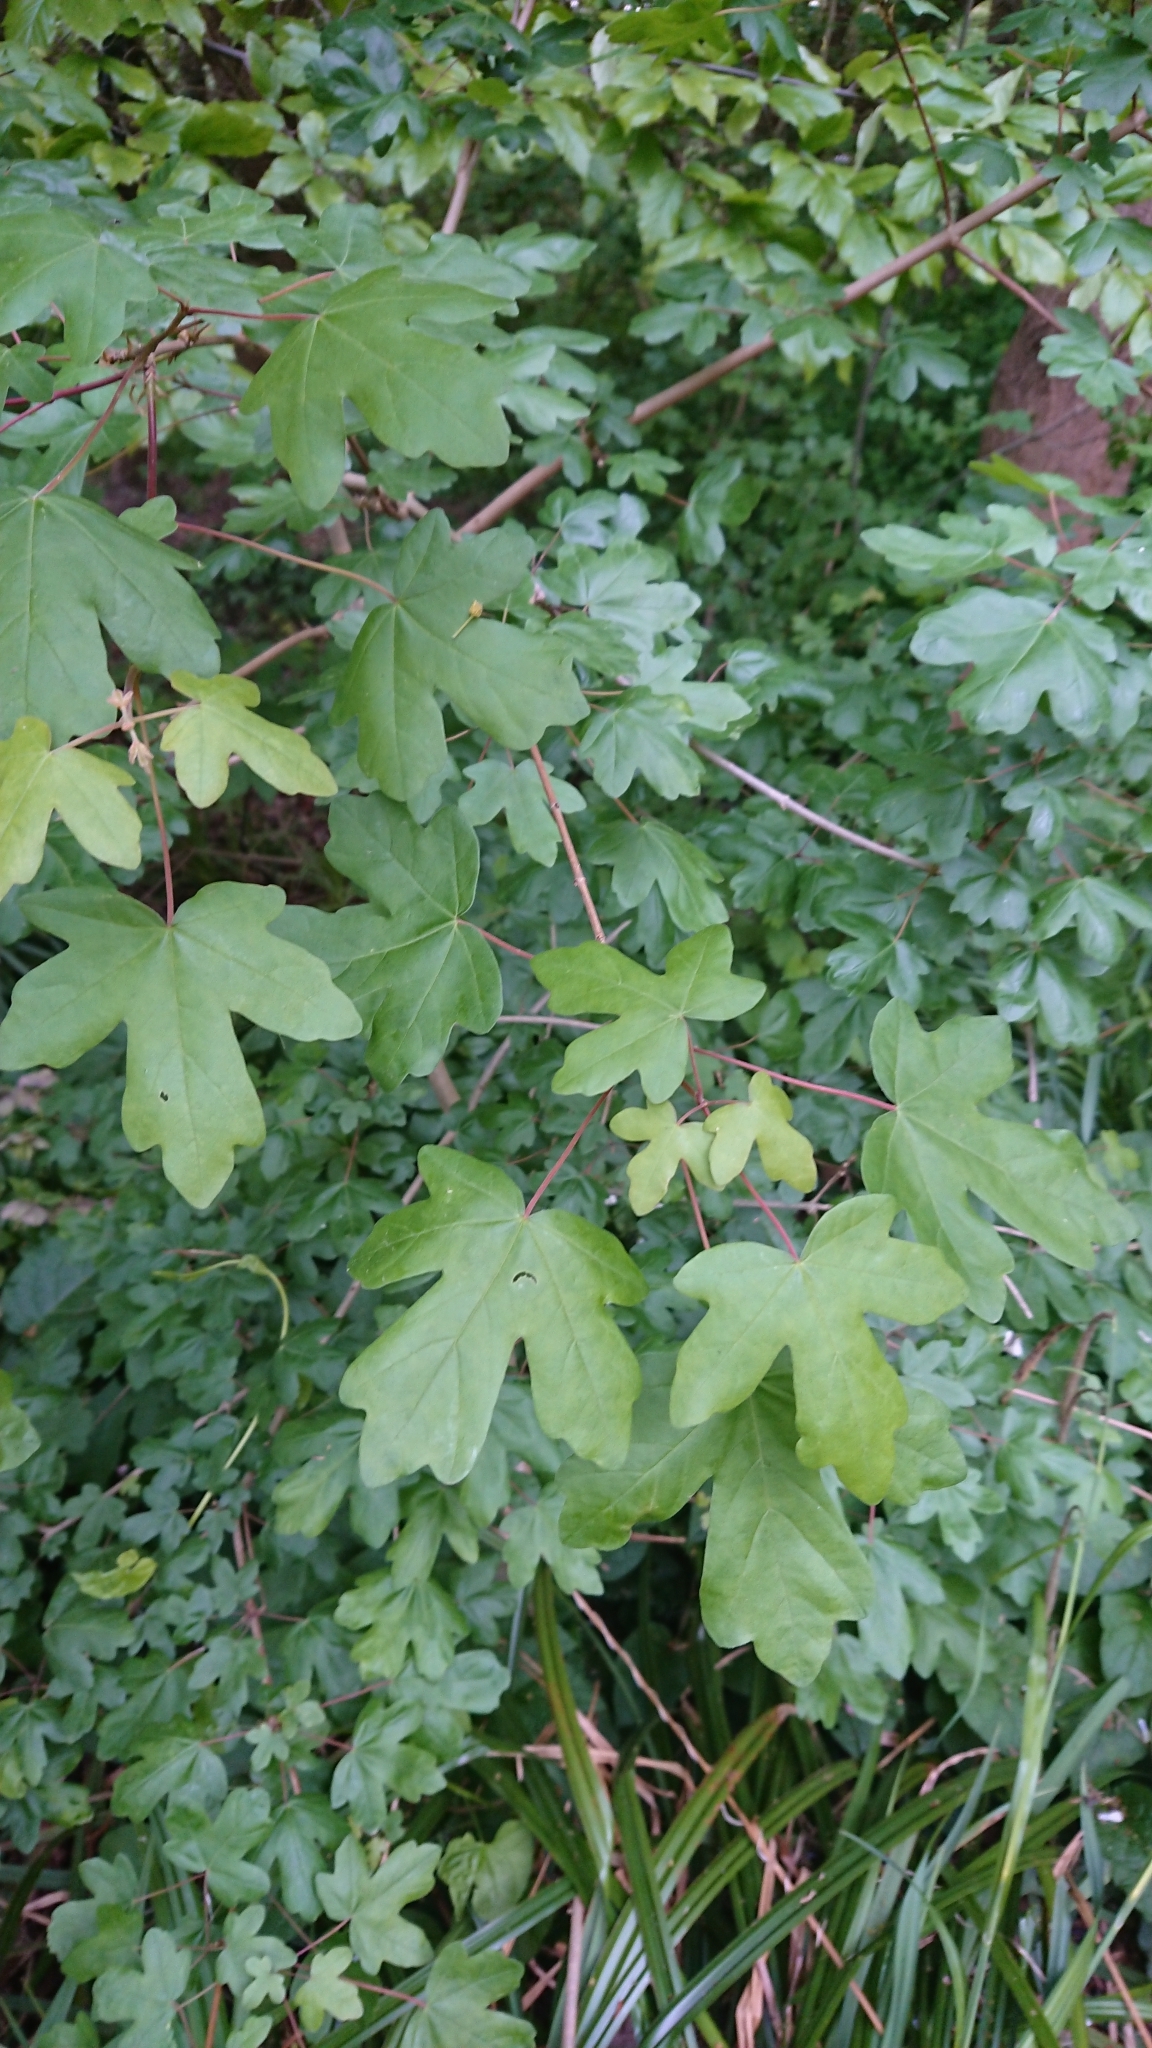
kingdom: Plantae
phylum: Tracheophyta
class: Magnoliopsida
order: Sapindales
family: Sapindaceae
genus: Acer
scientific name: Acer campestre
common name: Field maple
